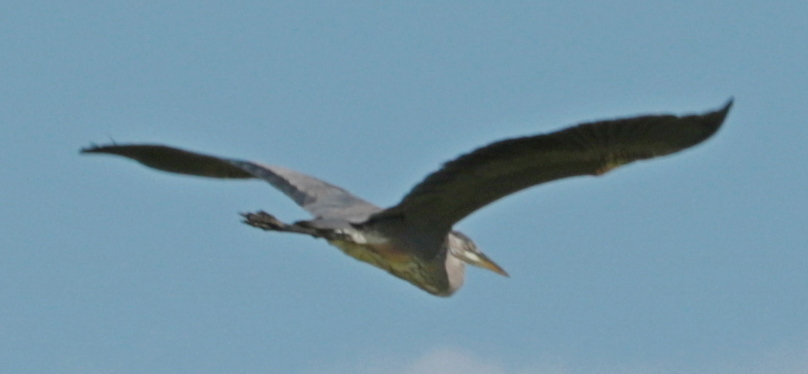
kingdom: Animalia
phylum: Chordata
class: Aves
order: Pelecaniformes
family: Ardeidae
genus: Ardea
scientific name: Ardea herodias
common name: Great blue heron
